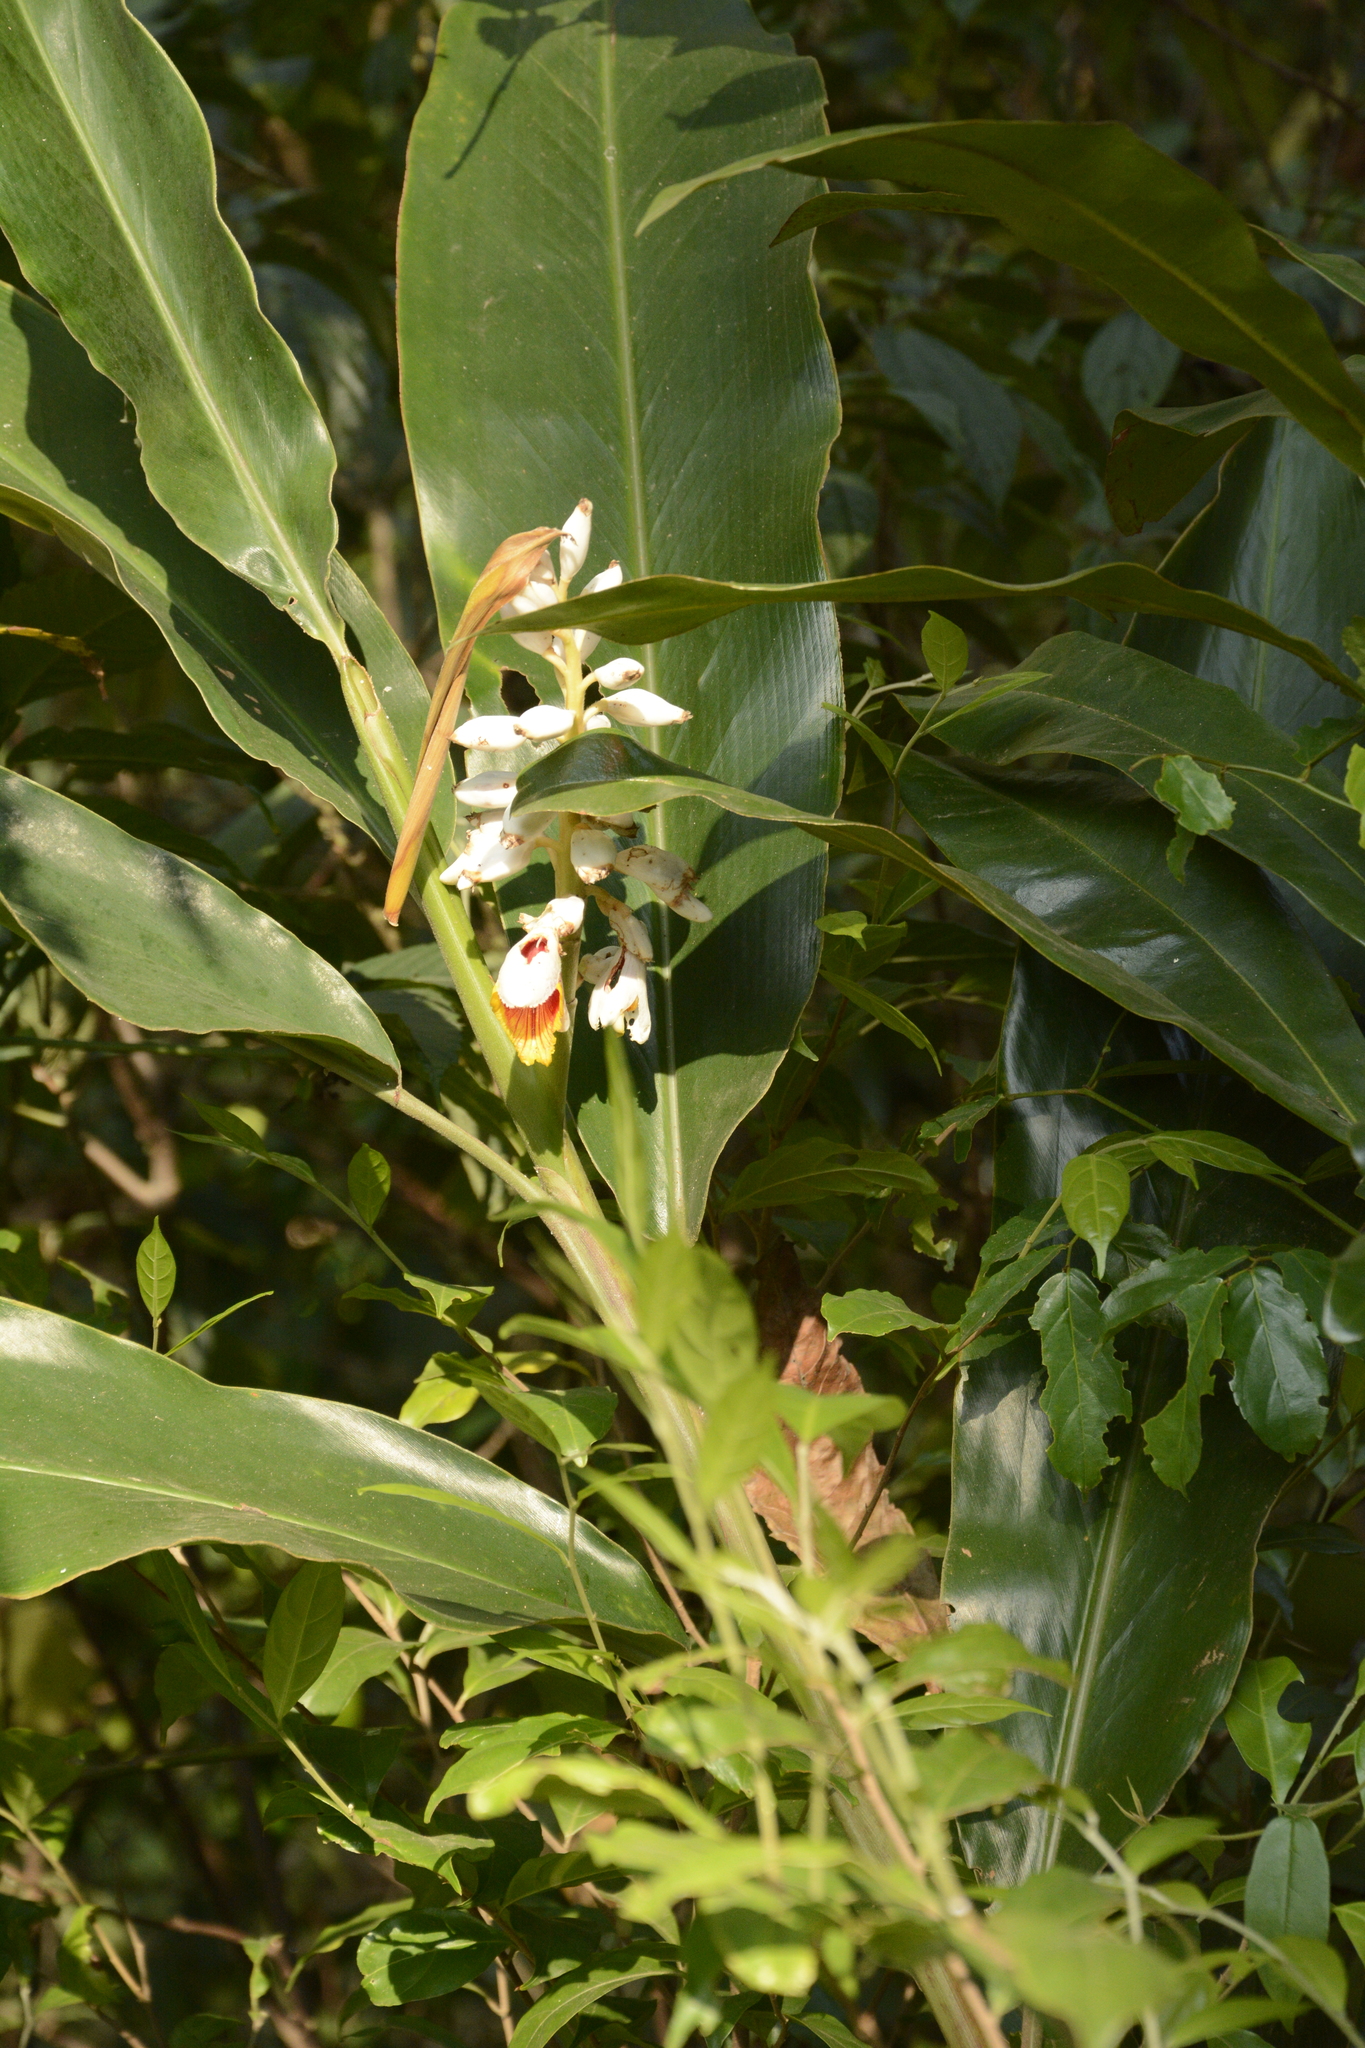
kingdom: Plantae
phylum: Tracheophyta
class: Liliopsida
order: Zingiberales
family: Zingiberaceae
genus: Alpinia
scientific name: Alpinia malaccensis
